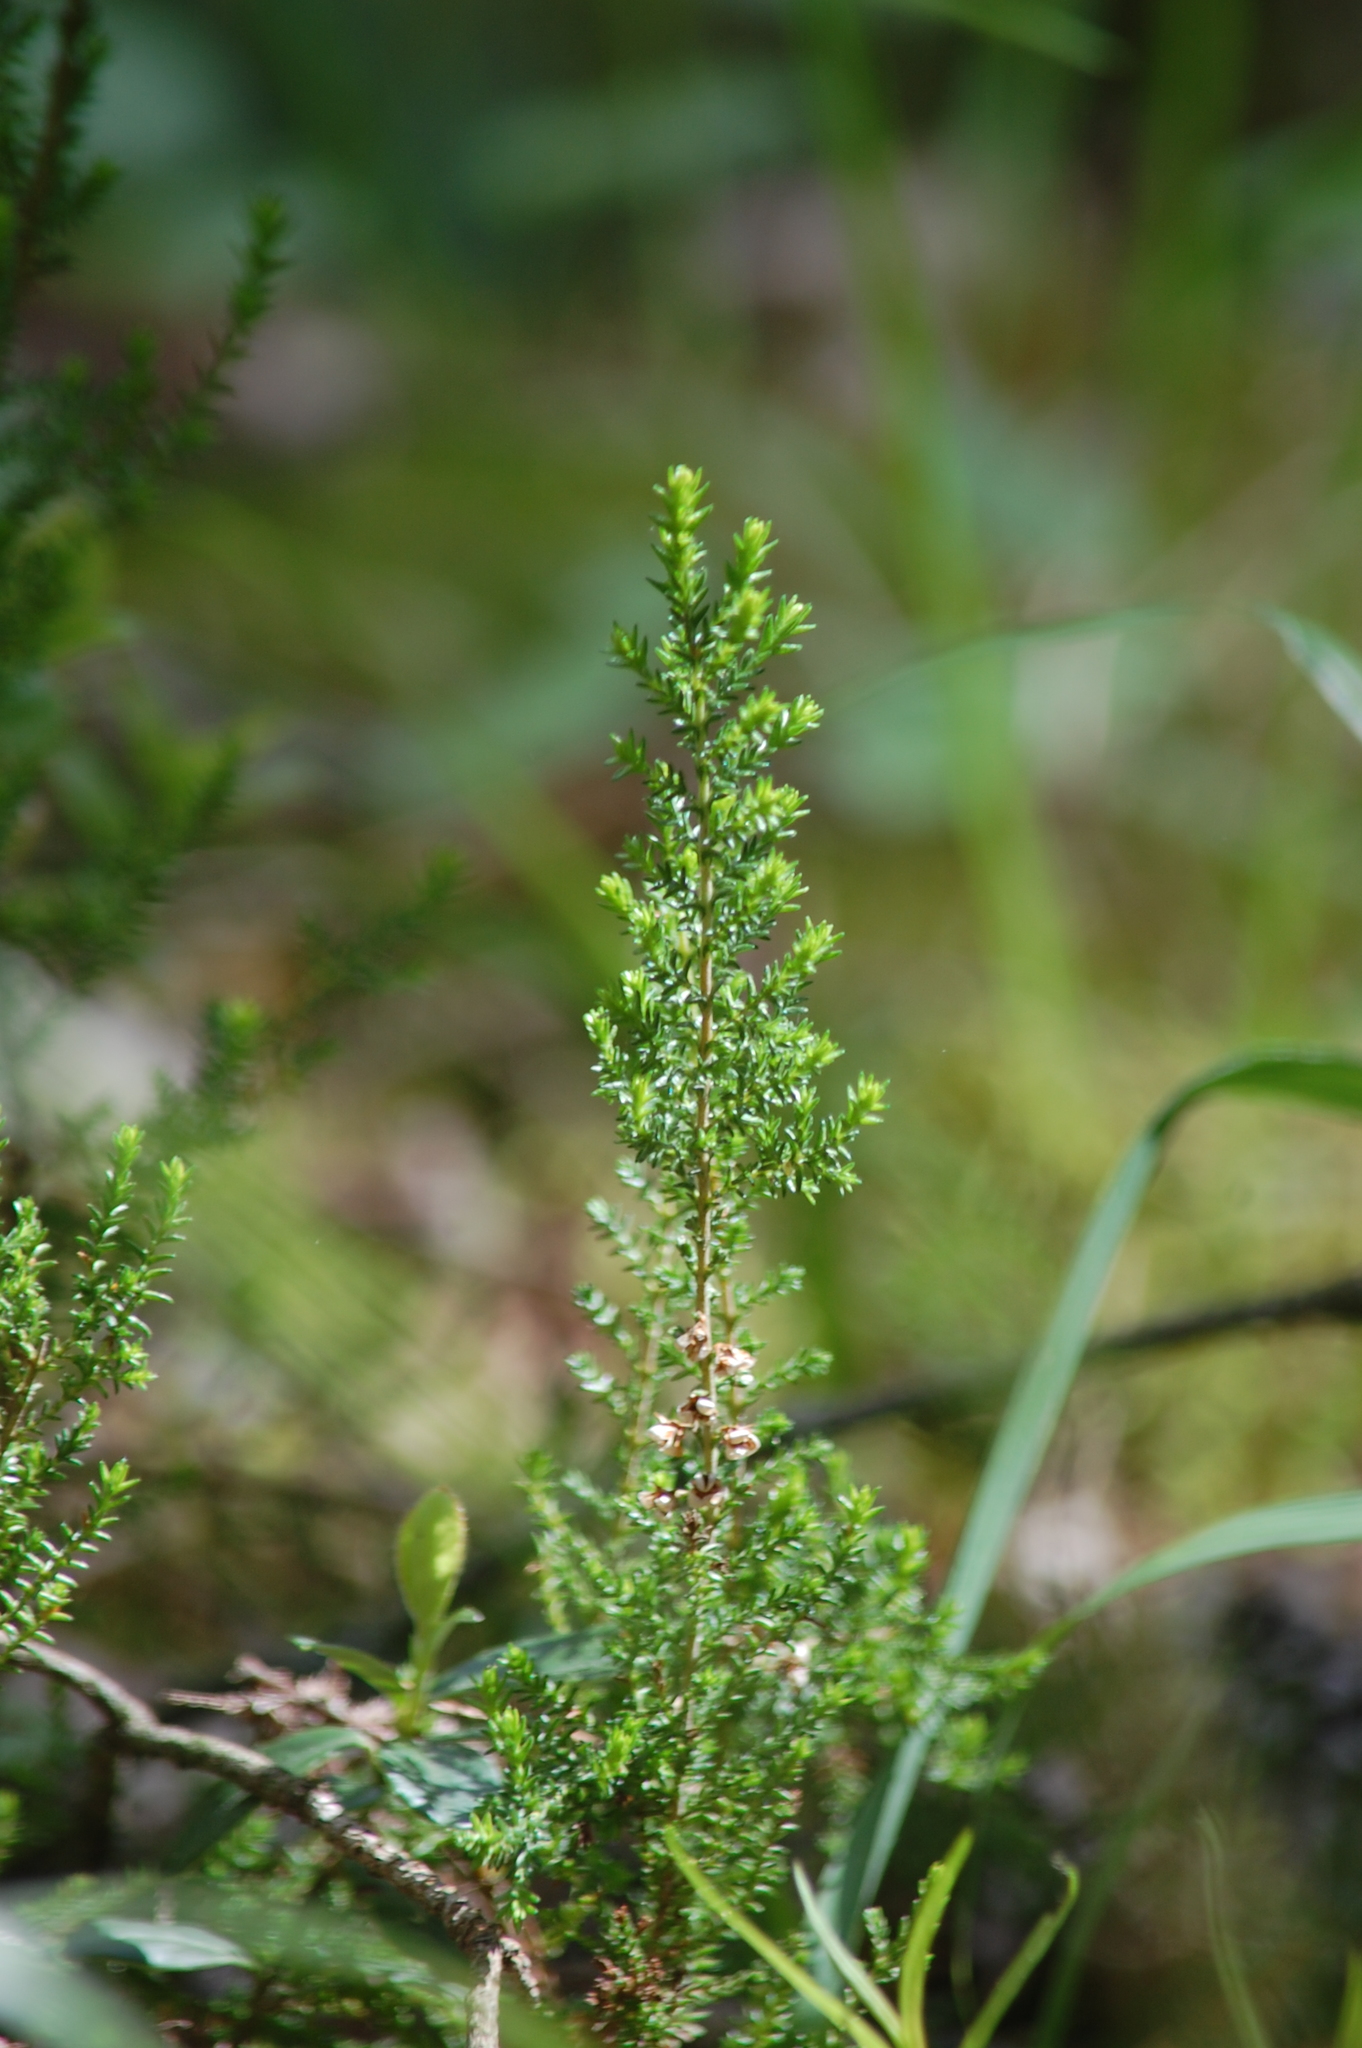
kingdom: Plantae
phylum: Tracheophyta
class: Magnoliopsida
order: Ericales
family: Ericaceae
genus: Calluna
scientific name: Calluna vulgaris
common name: Heather
